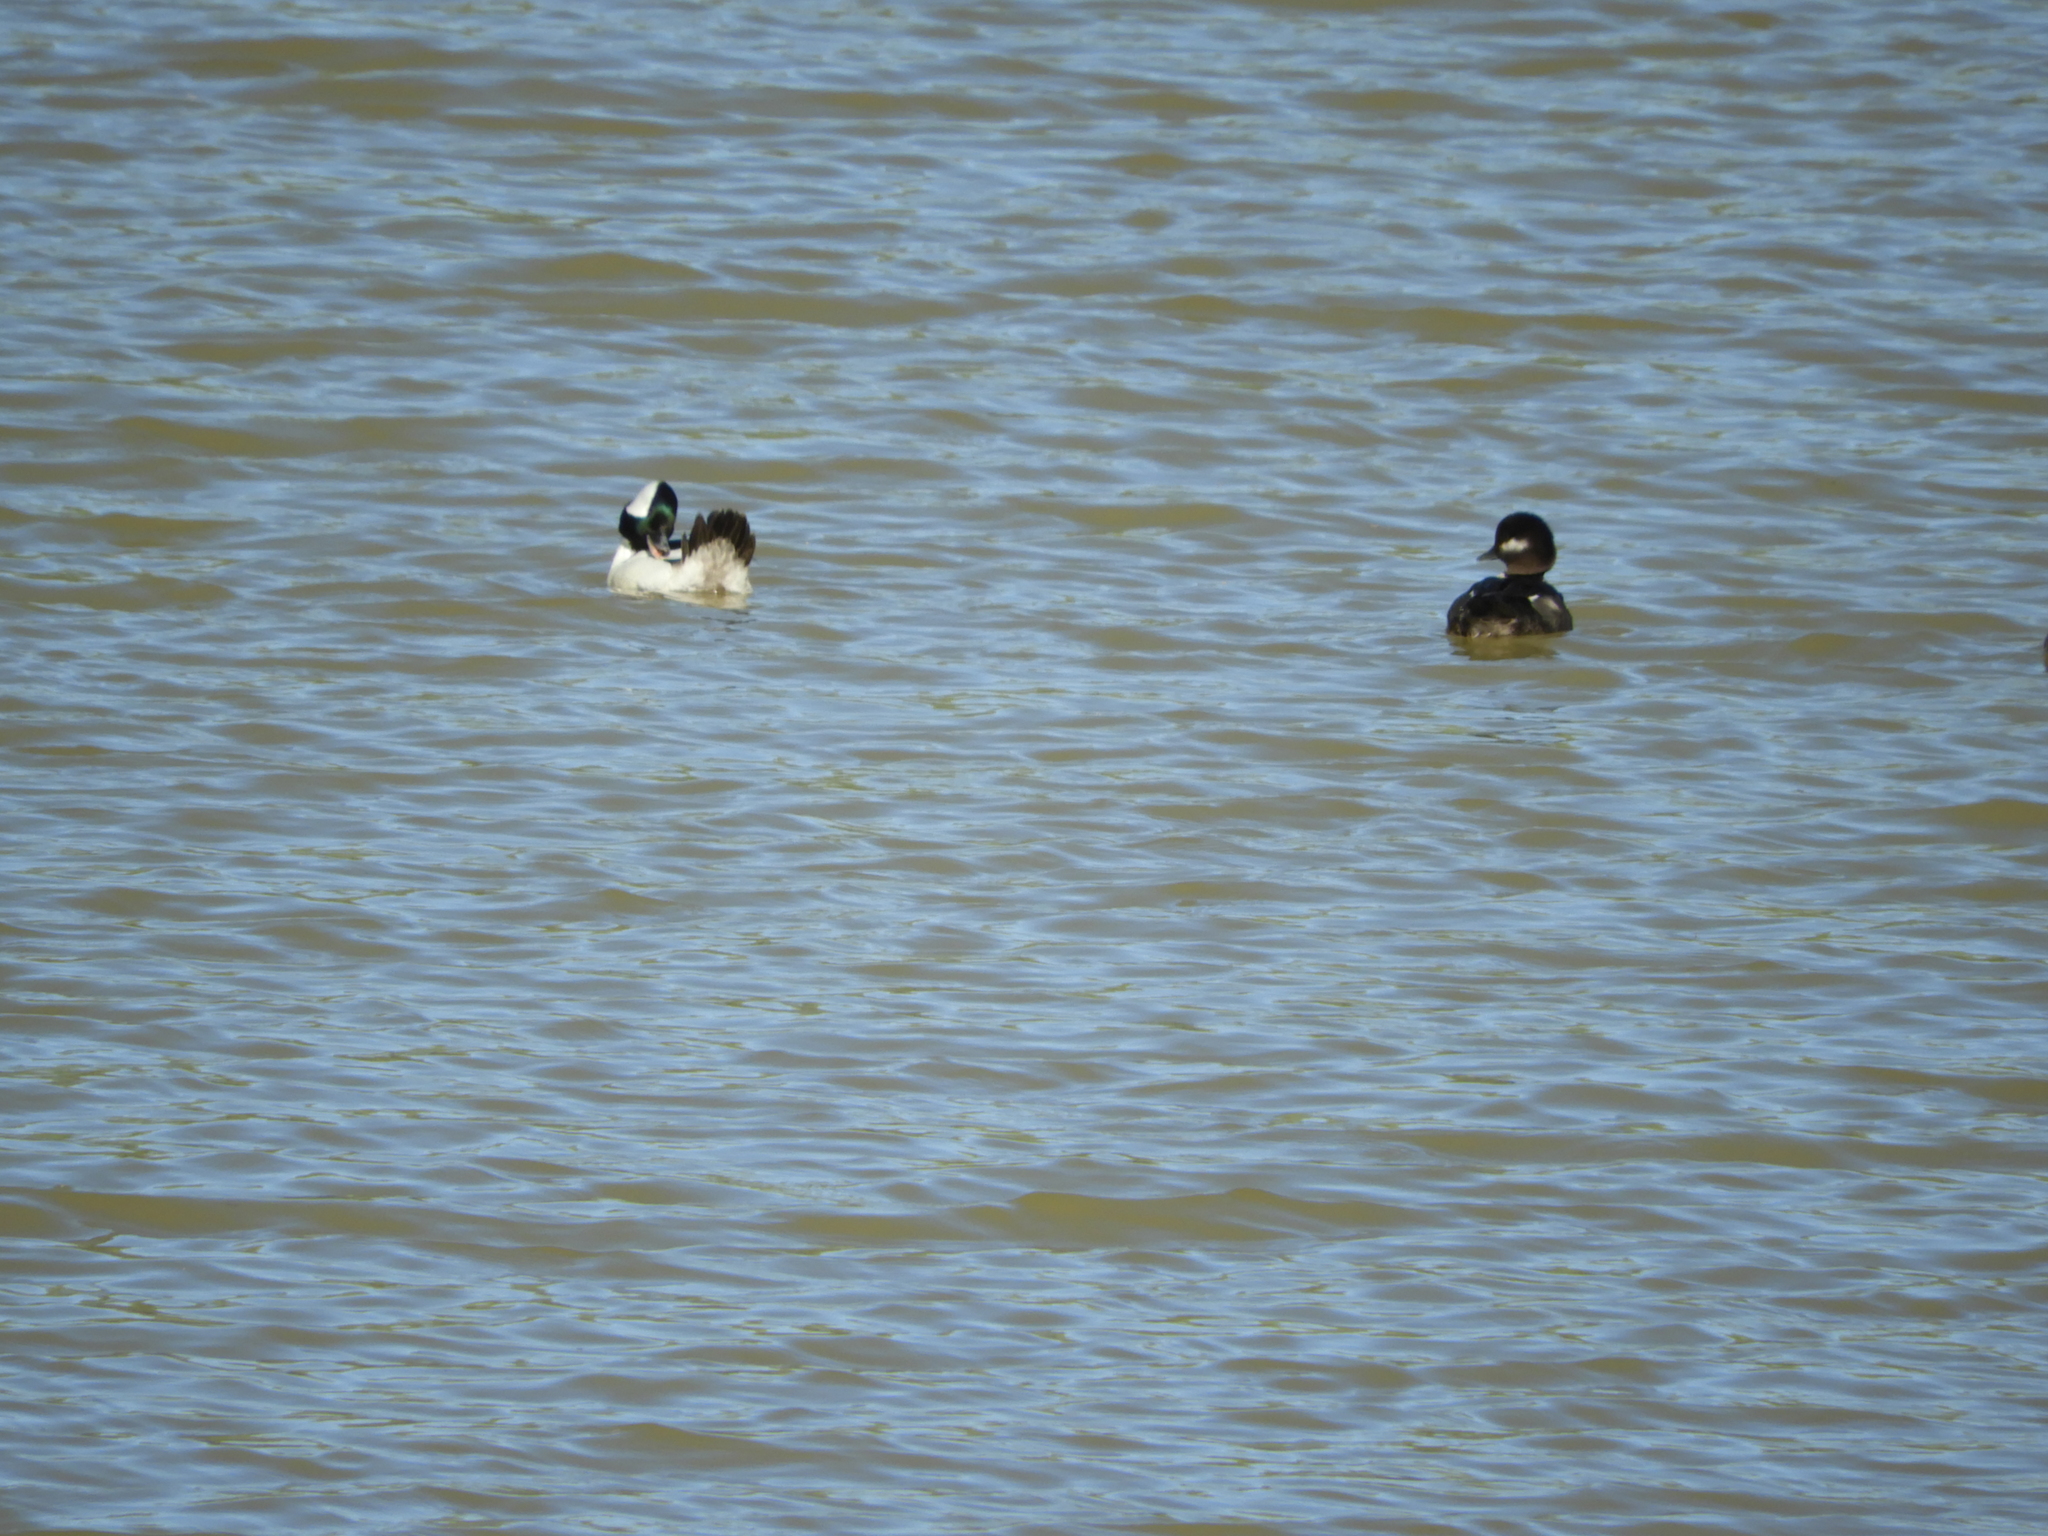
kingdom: Animalia
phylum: Chordata
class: Aves
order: Anseriformes
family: Anatidae
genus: Bucephala
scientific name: Bucephala albeola
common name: Bufflehead
